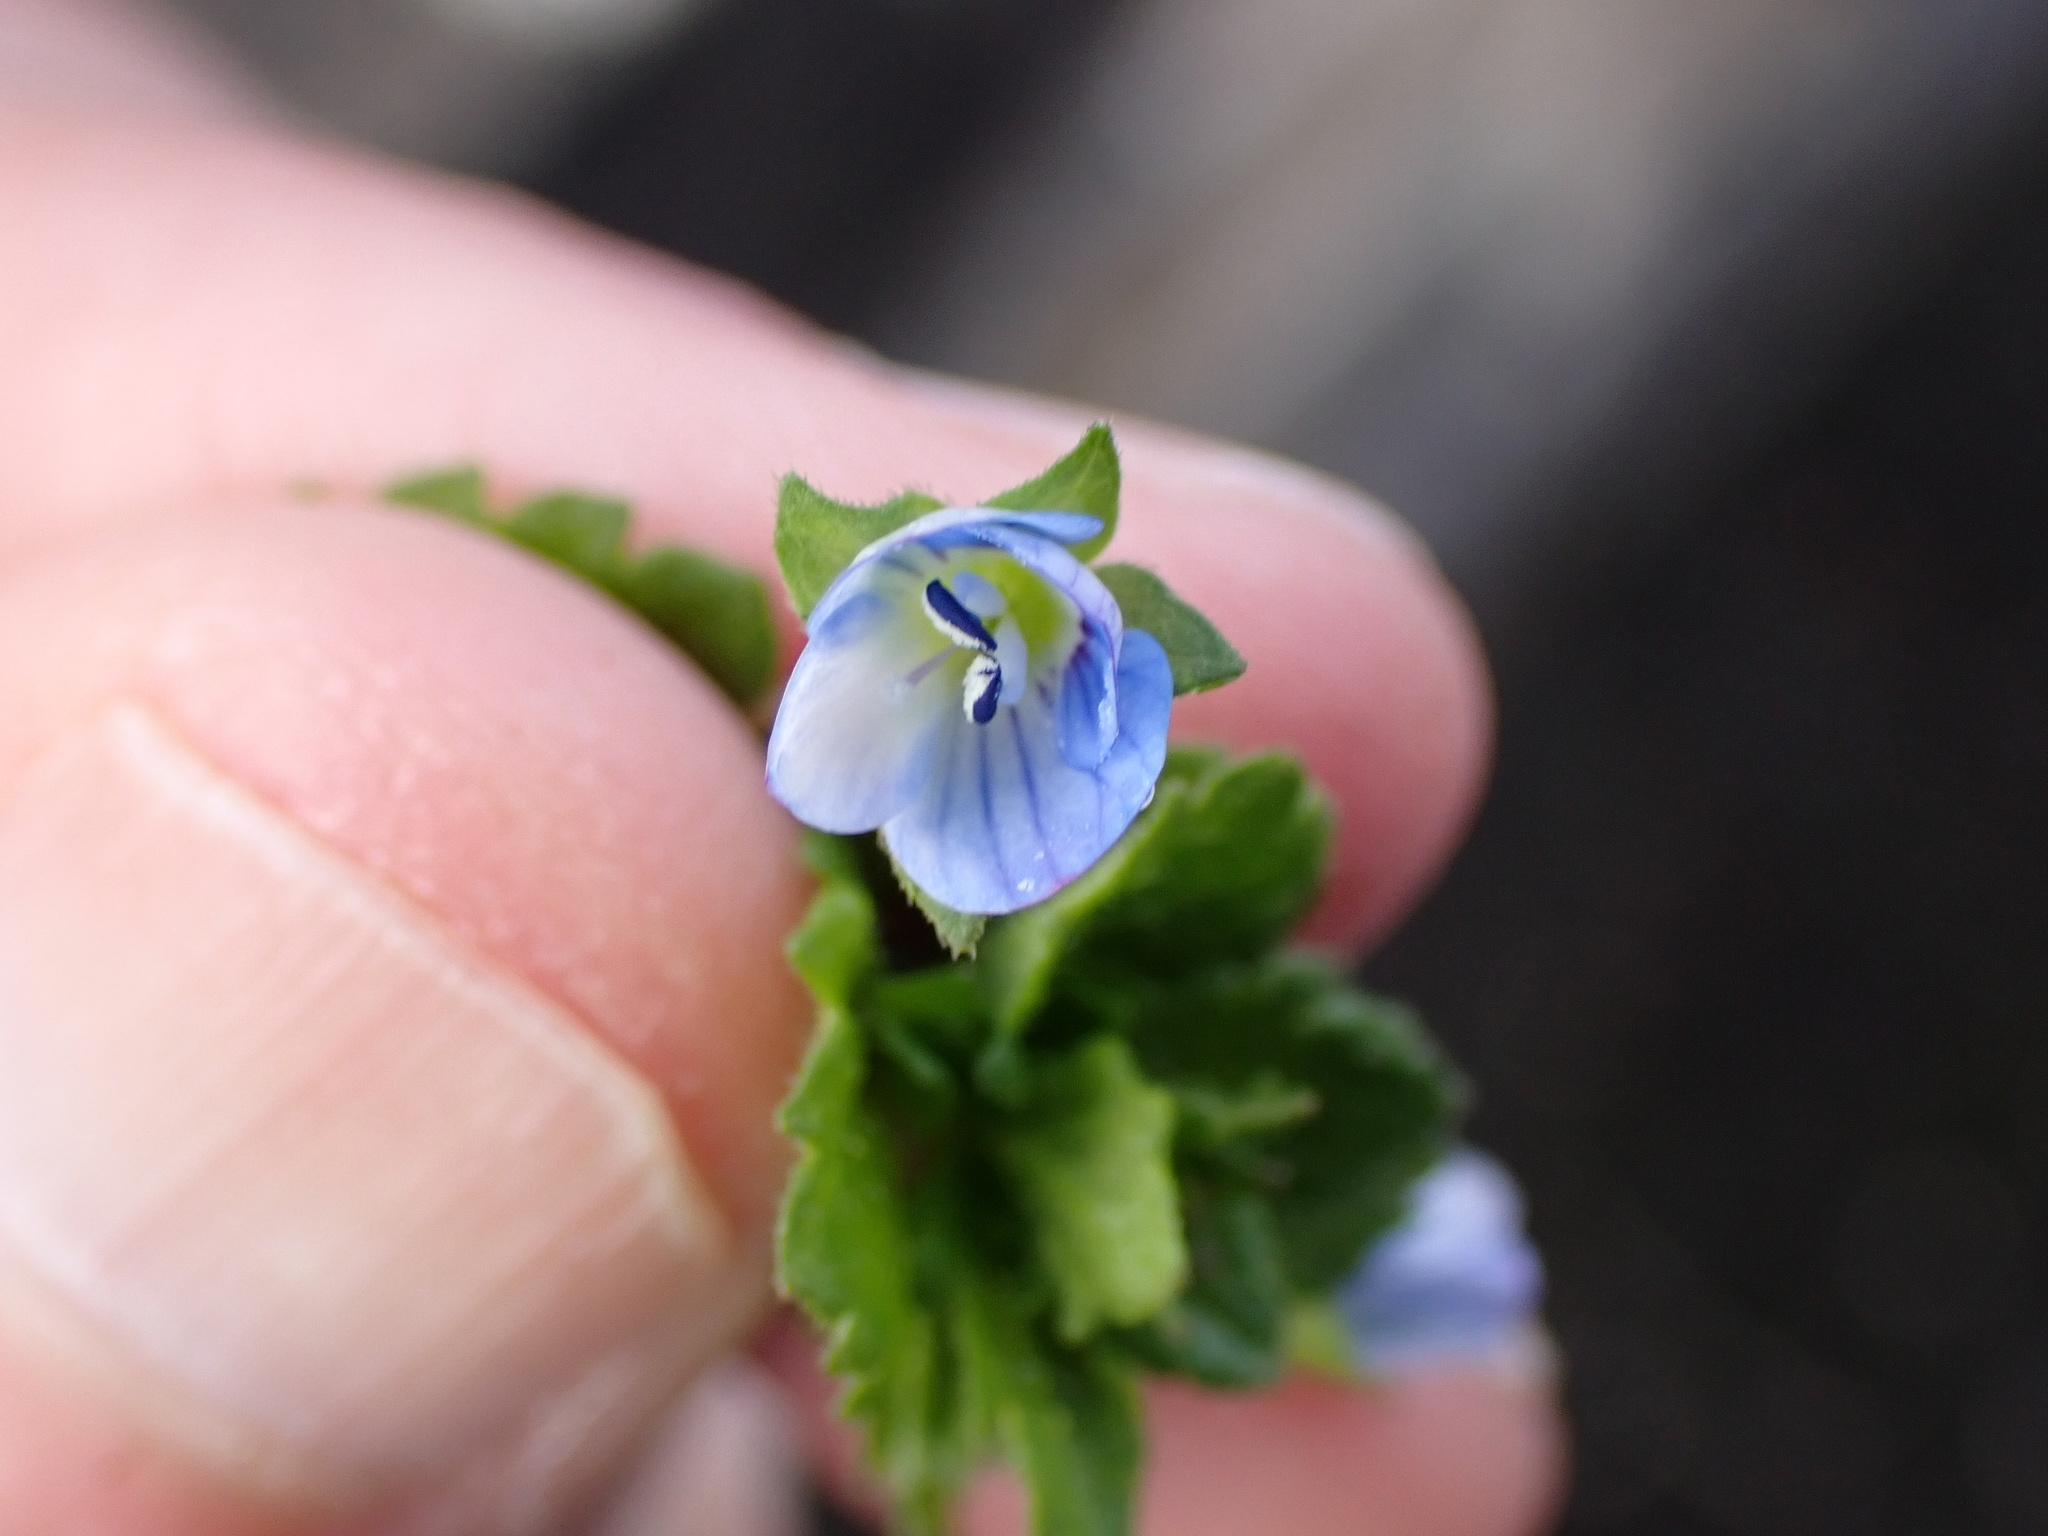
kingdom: Plantae
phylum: Tracheophyta
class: Magnoliopsida
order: Lamiales
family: Plantaginaceae
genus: Veronica
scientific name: Veronica persica
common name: Common field-speedwell
